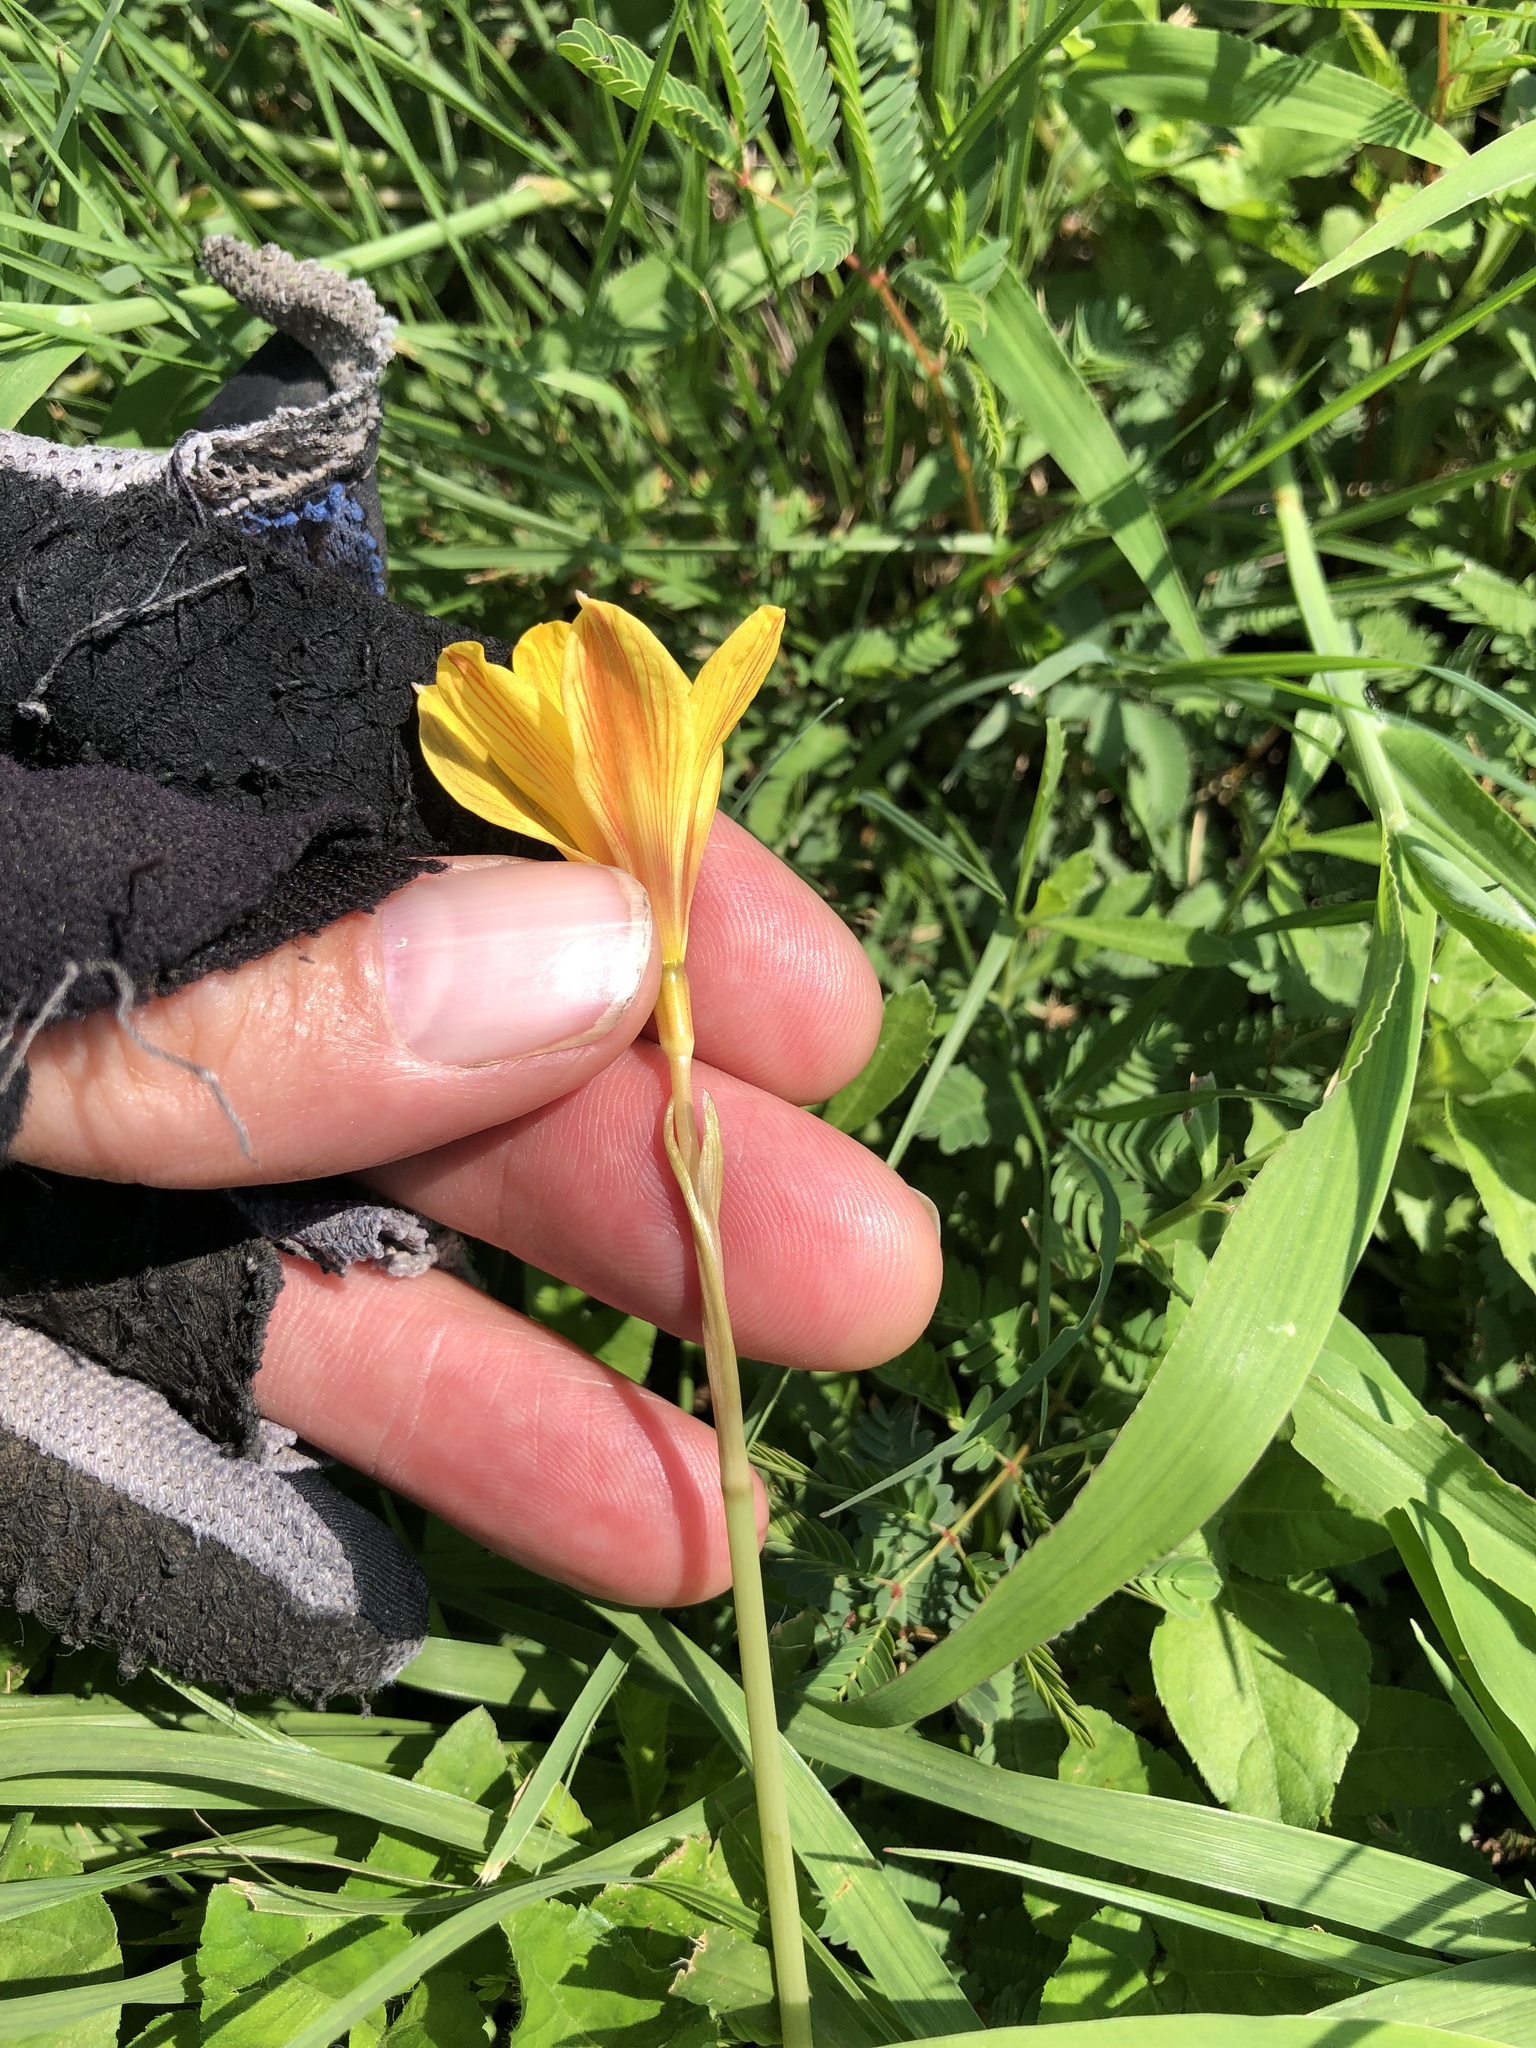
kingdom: Plantae
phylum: Tracheophyta
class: Liliopsida
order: Asparagales
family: Amaryllidaceae
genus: Zephyranthes
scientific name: Zephyranthes tubispatha
